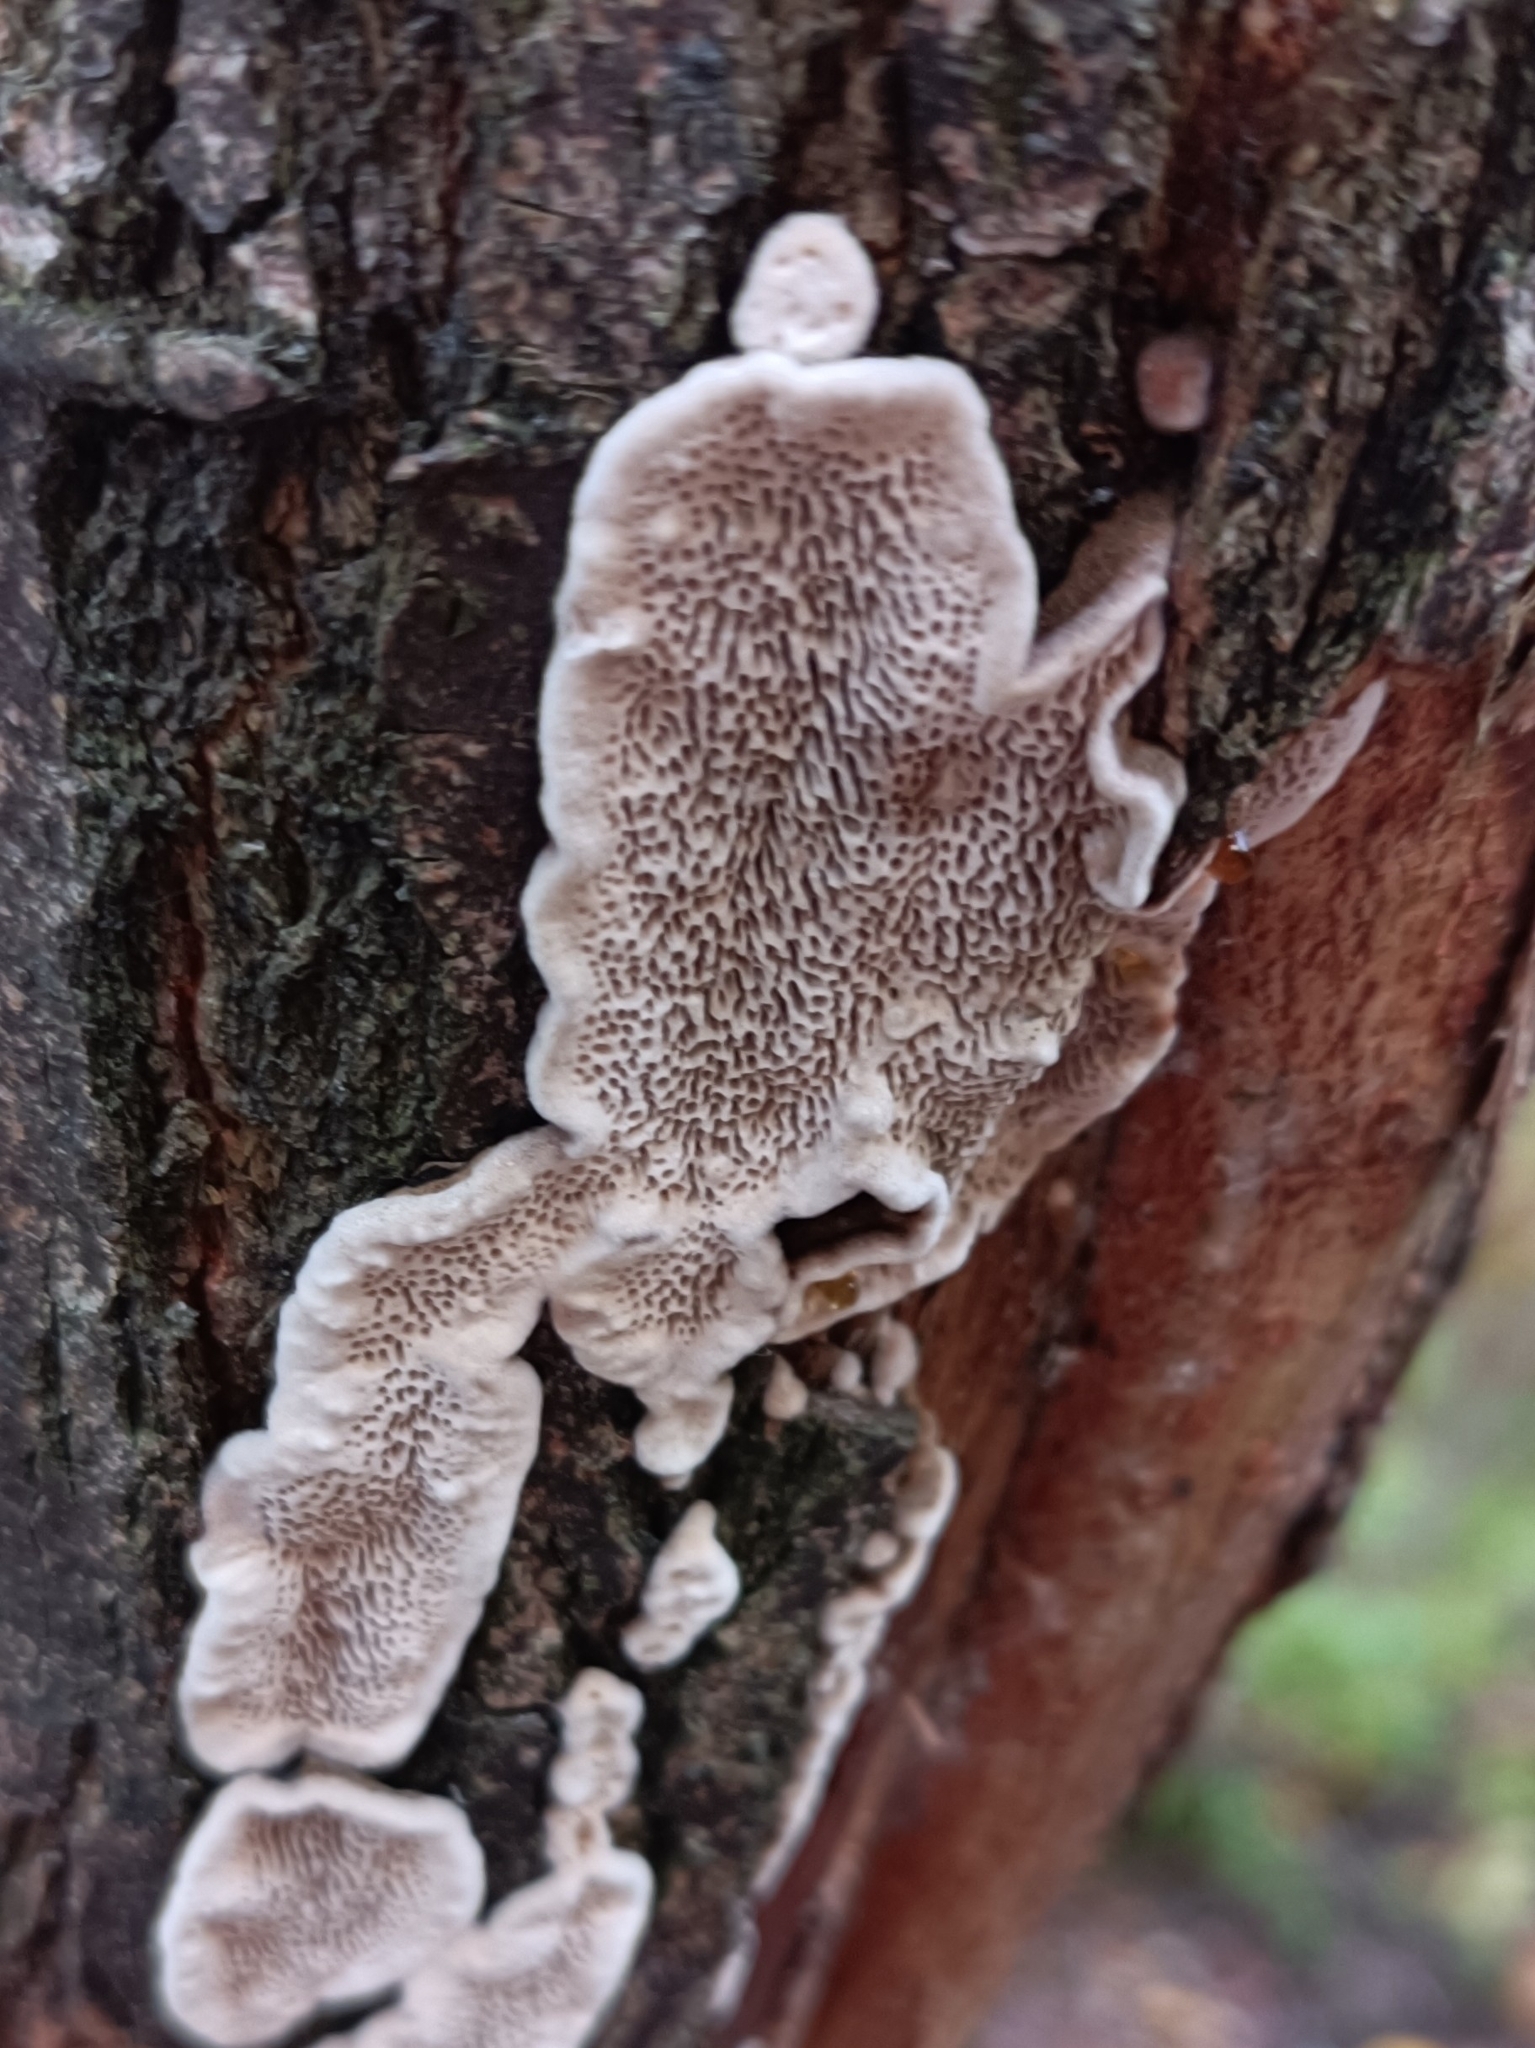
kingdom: Fungi
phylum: Basidiomycota
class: Agaricomycetes
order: Polyporales
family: Polyporaceae
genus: Podofomes
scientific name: Podofomes mollis
